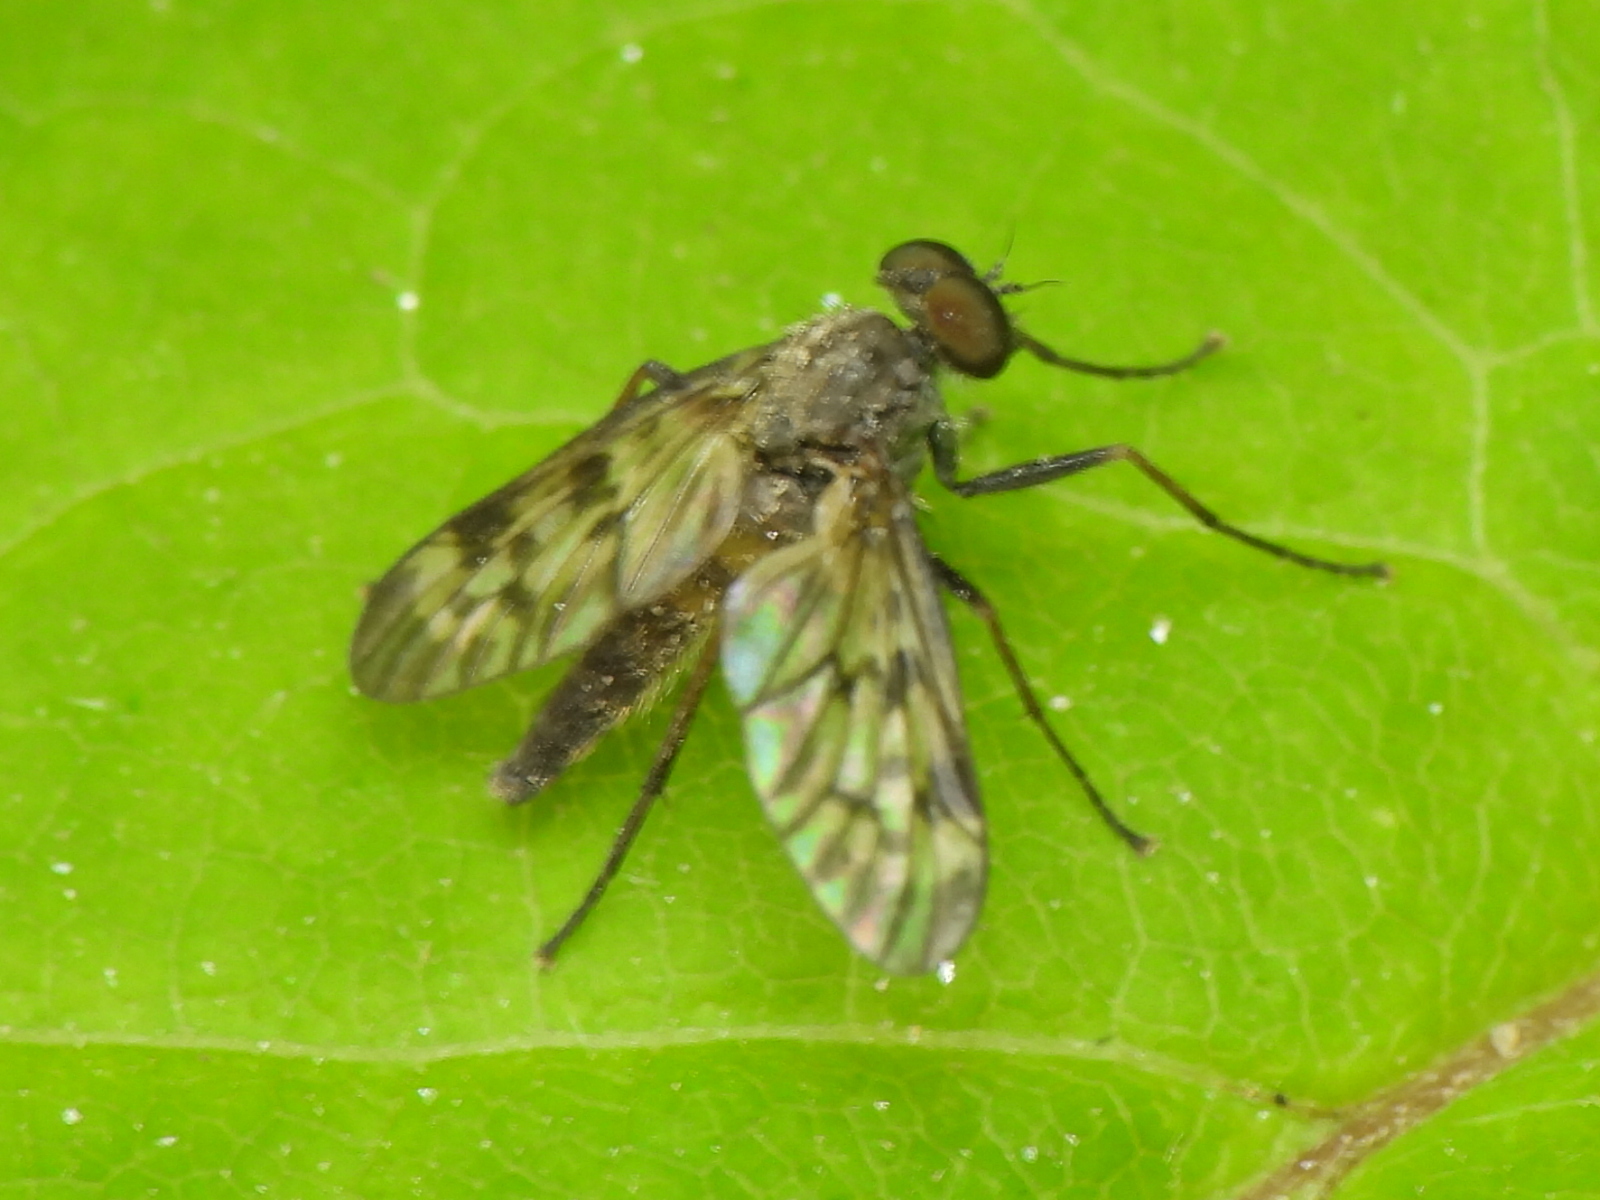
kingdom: Animalia
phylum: Arthropoda
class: Insecta
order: Diptera
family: Rhagionidae
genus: Rhagio
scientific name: Rhagio punctipennis
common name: Lesser variegated snipe fly
